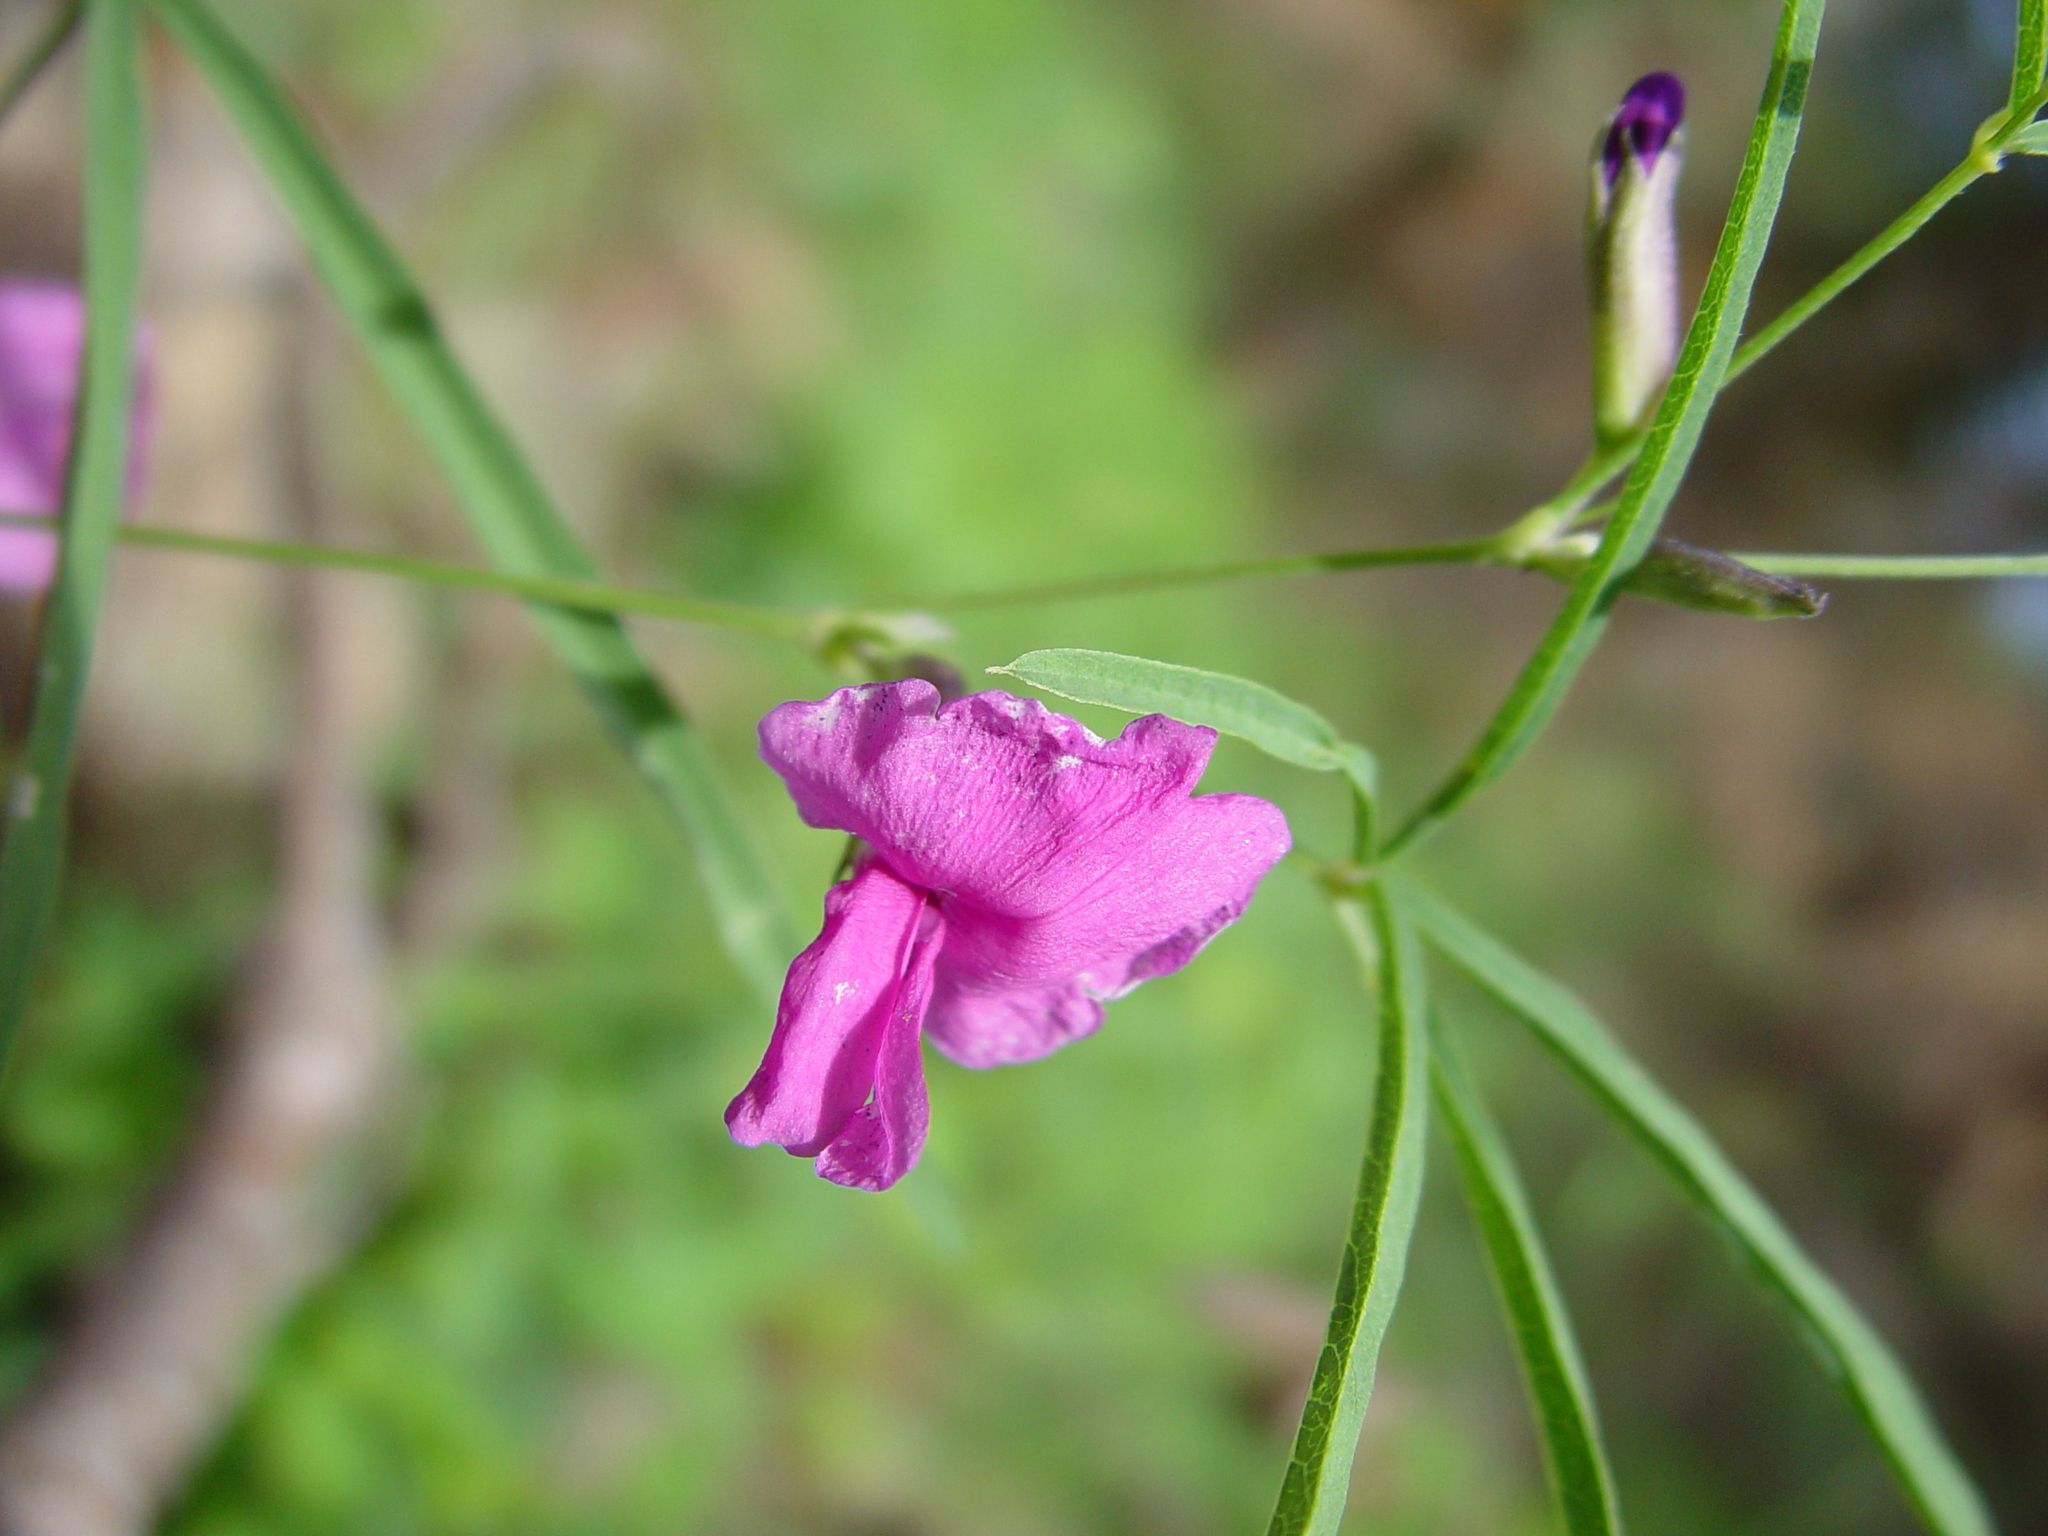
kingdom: Plantae
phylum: Tracheophyta
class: Magnoliopsida
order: Fabales
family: Fabaceae
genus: Cologania
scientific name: Cologania angustifolia
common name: Longleaf cologania
